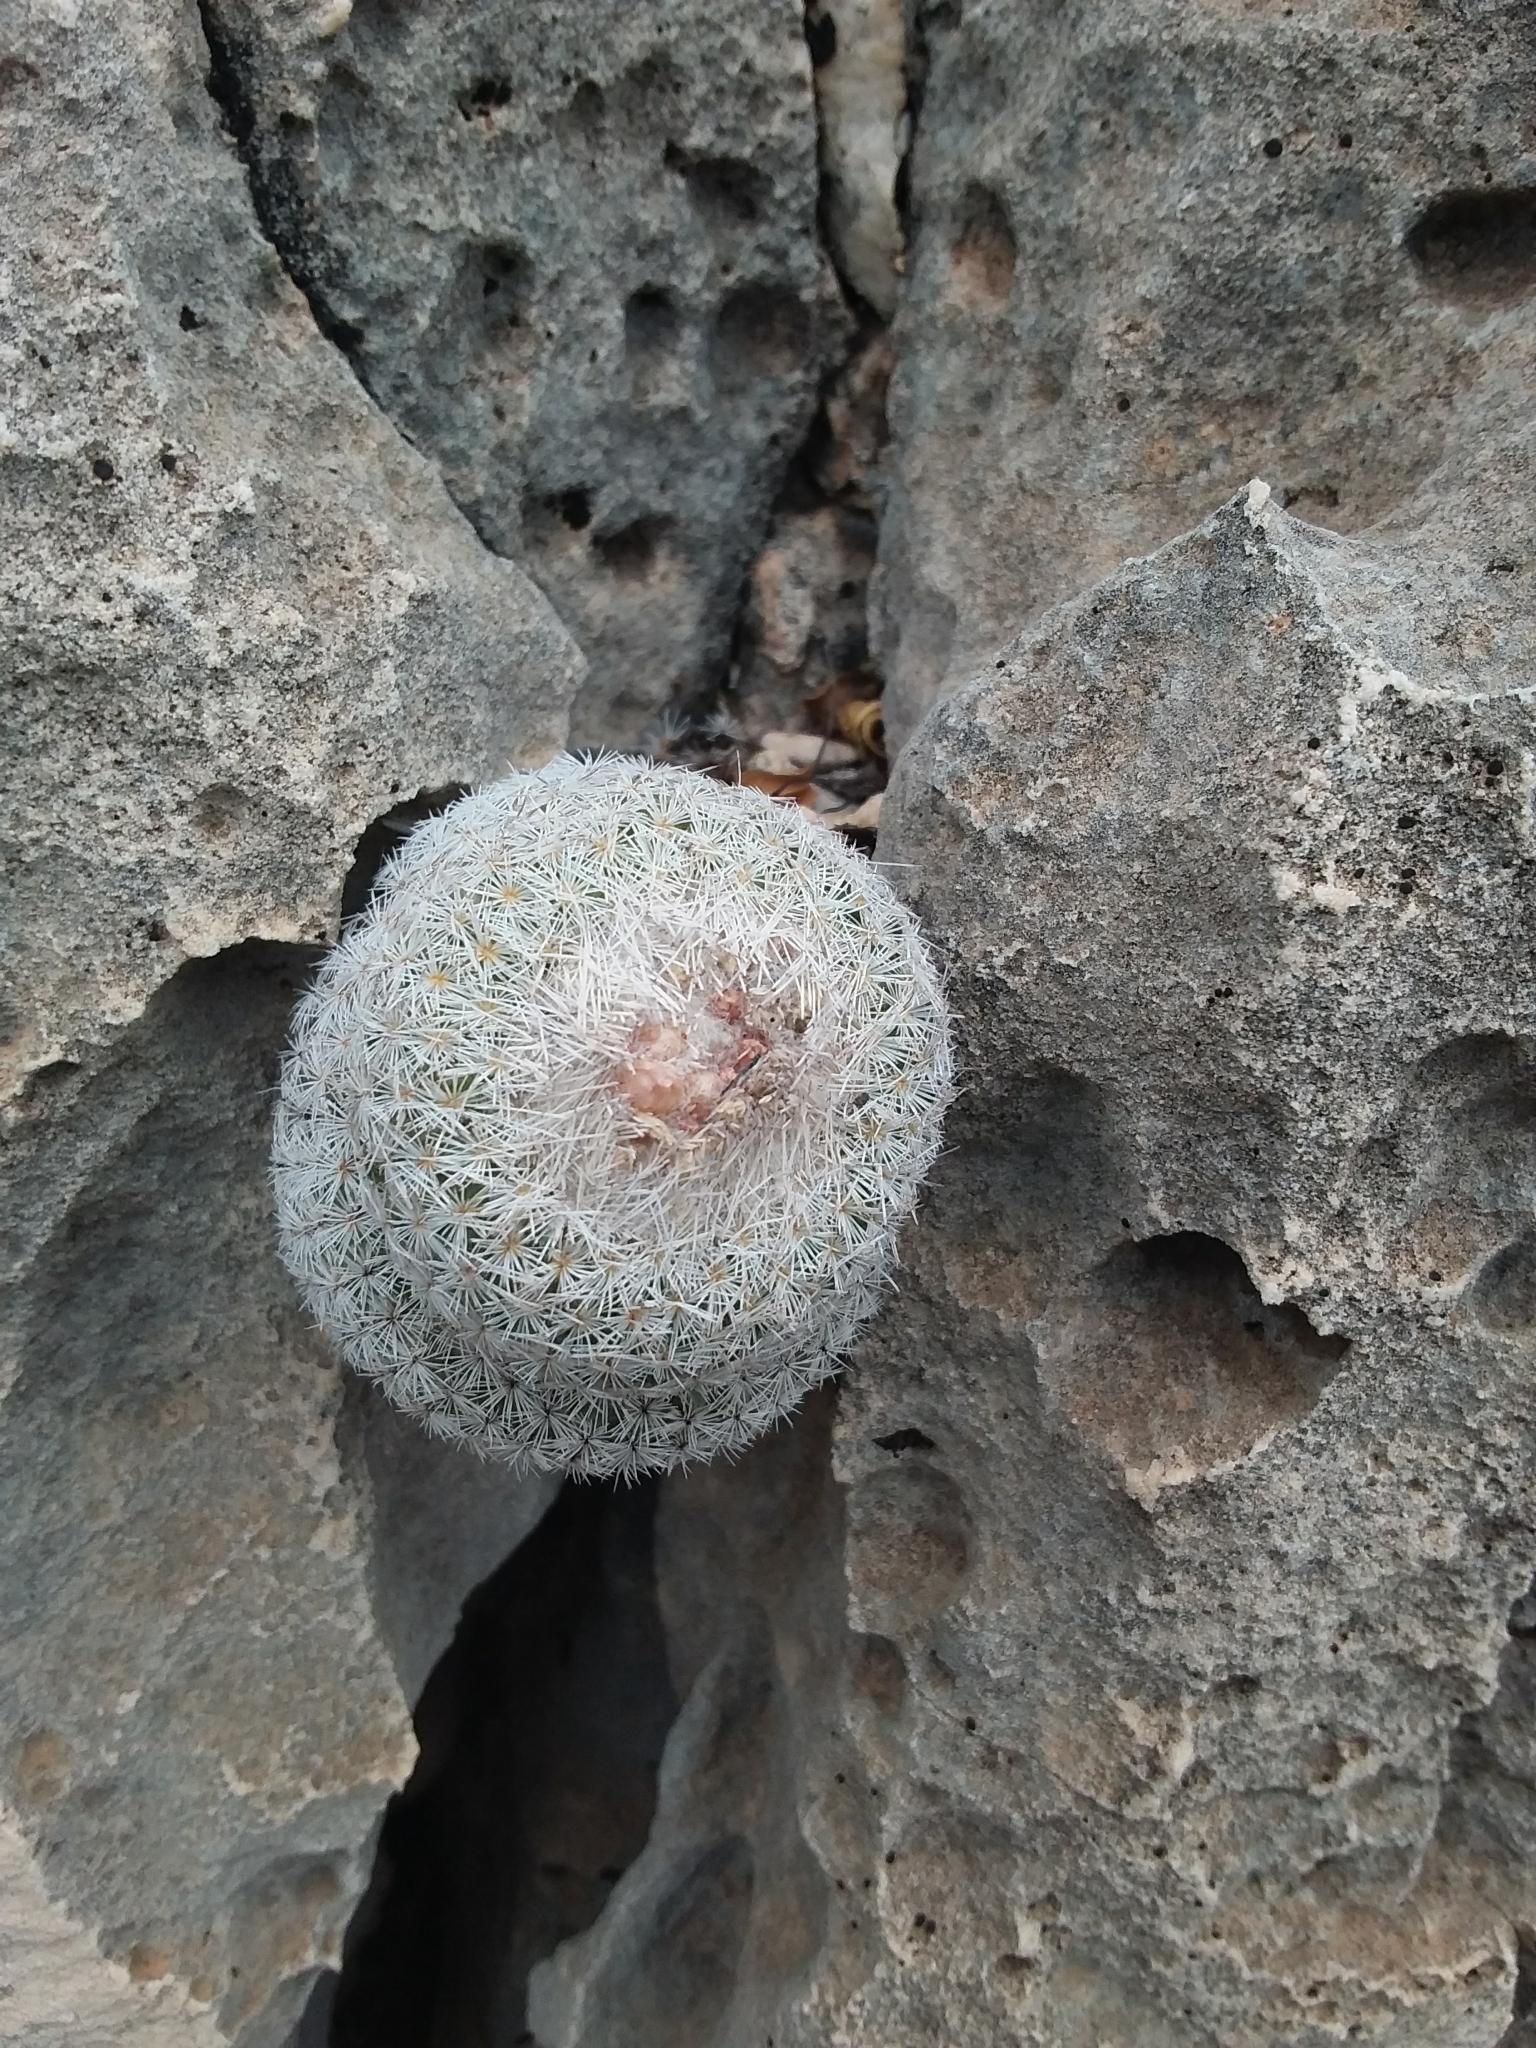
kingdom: Plantae
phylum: Tracheophyta
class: Magnoliopsida
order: Caryophyllales
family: Cactaceae
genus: Epithelantha
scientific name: Epithelantha micromeris
